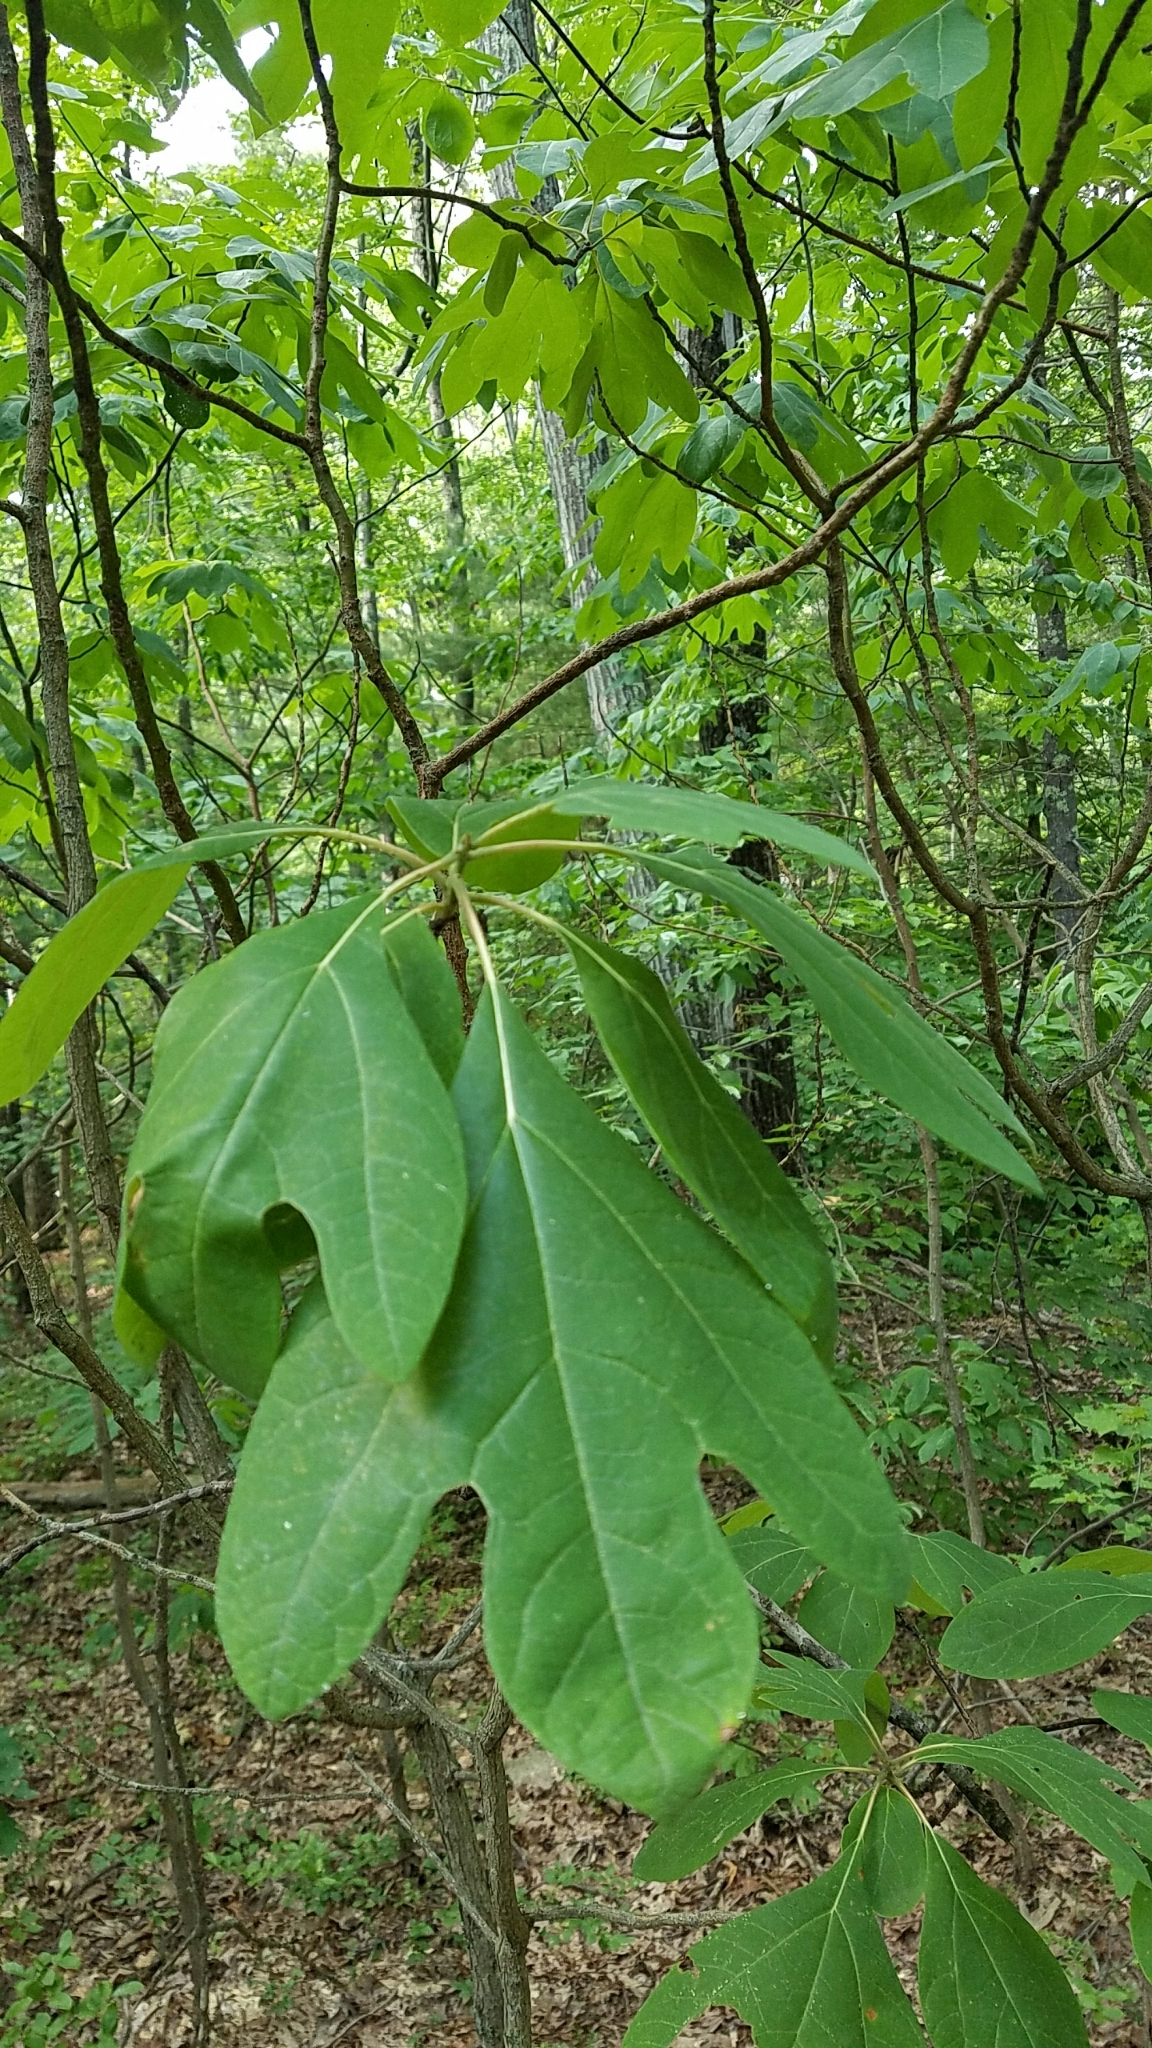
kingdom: Plantae
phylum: Tracheophyta
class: Magnoliopsida
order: Laurales
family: Lauraceae
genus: Sassafras
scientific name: Sassafras albidum
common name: Sassafras
